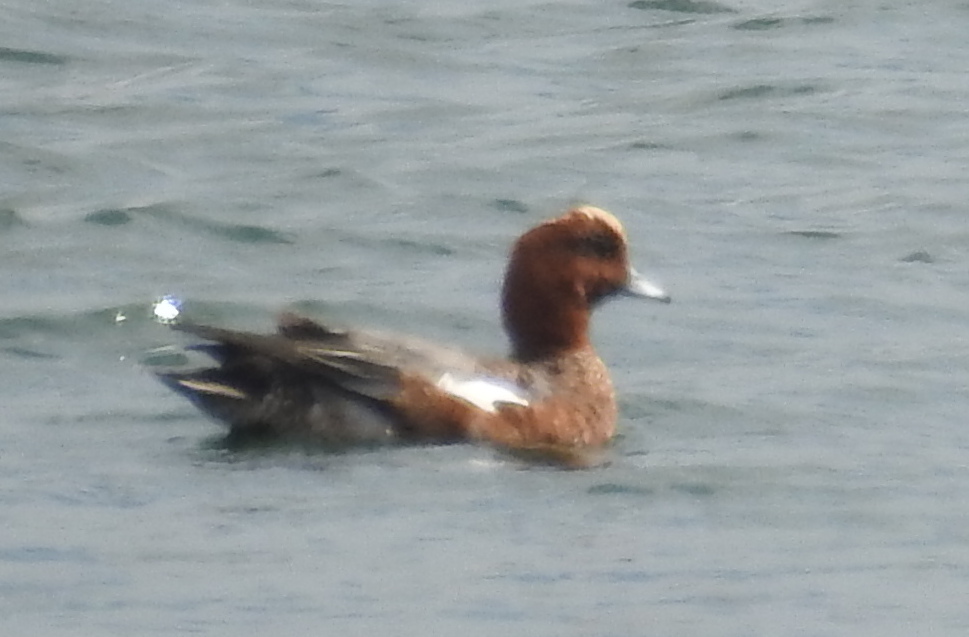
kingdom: Animalia
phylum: Chordata
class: Aves
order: Anseriformes
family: Anatidae
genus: Mareca
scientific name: Mareca penelope
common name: Eurasian wigeon
